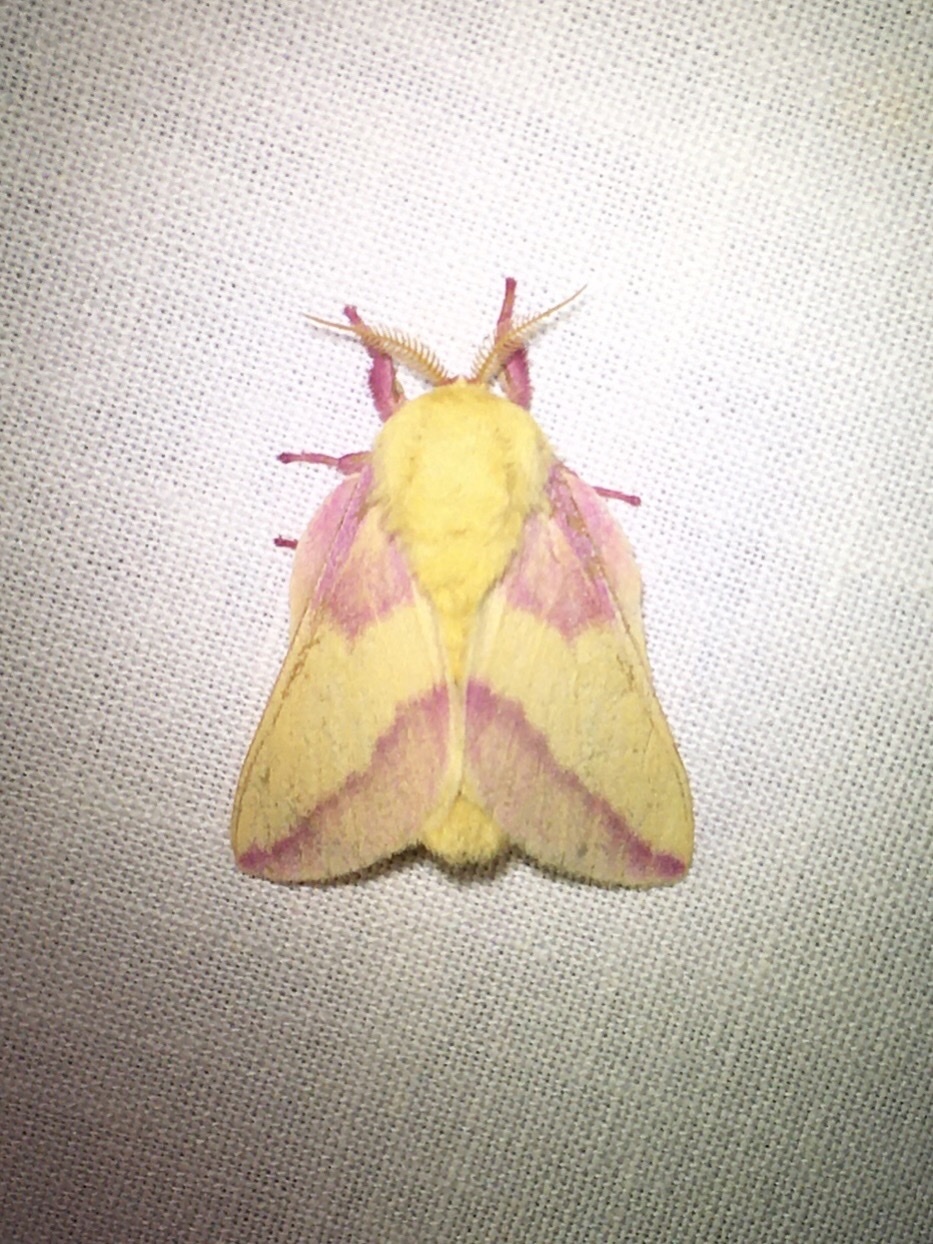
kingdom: Animalia
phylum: Arthropoda
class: Insecta
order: Lepidoptera
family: Saturniidae
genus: Dryocampa
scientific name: Dryocampa rubicunda
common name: Rosy maple moth
